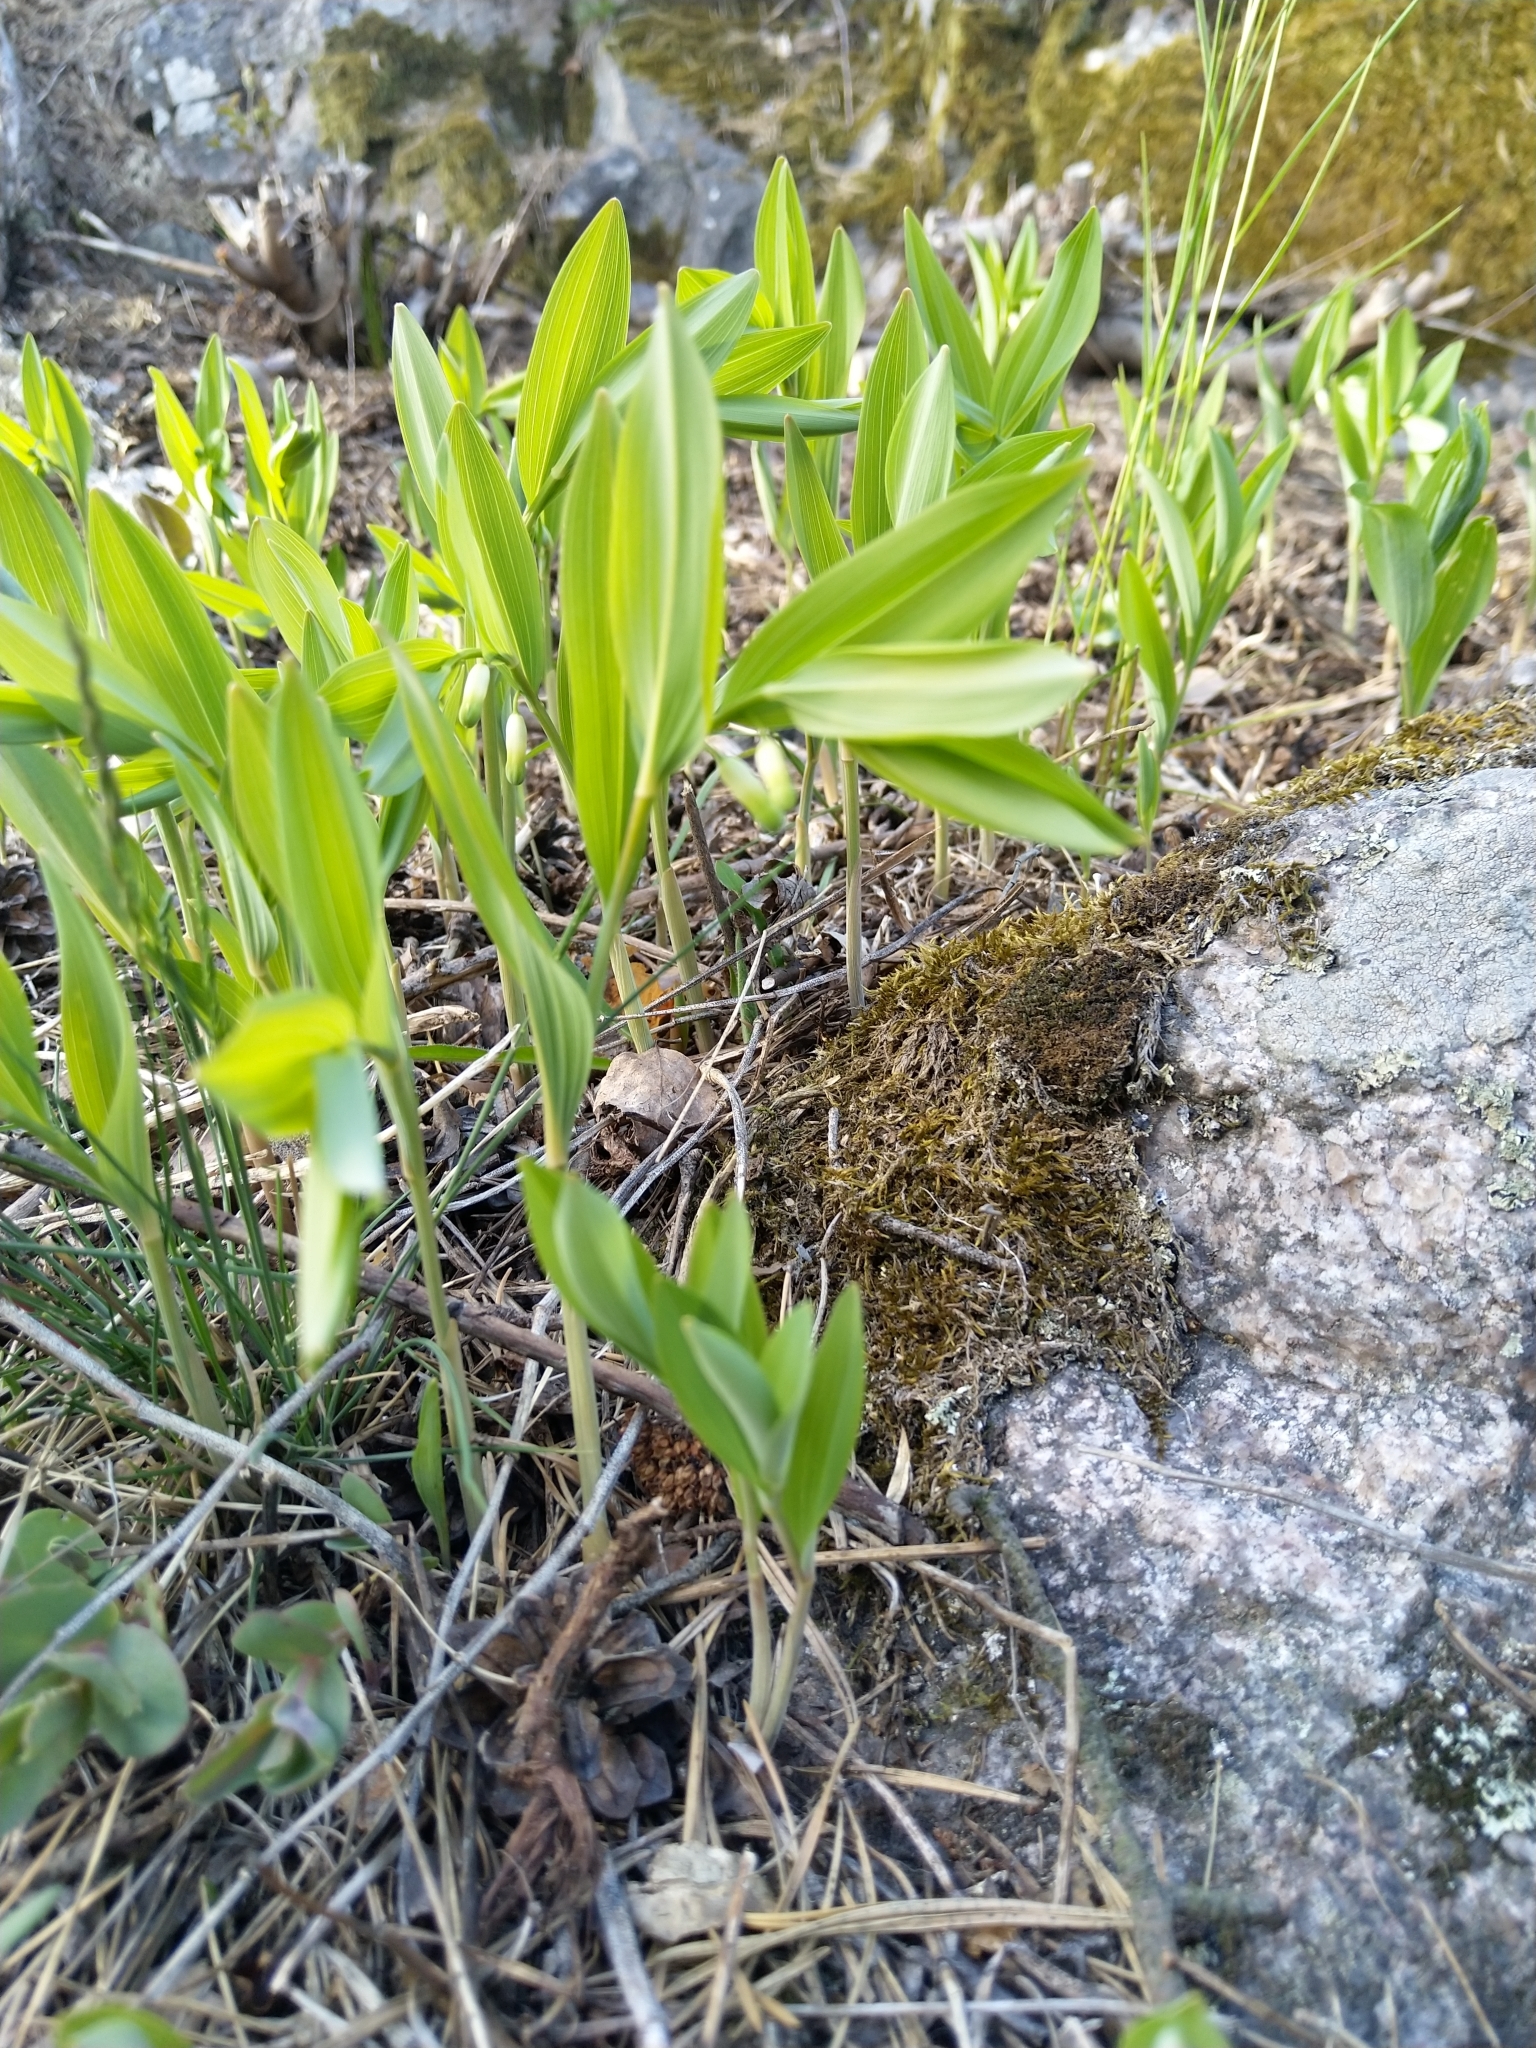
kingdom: Plantae
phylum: Tracheophyta
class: Liliopsida
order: Asparagales
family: Asparagaceae
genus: Polygonatum
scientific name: Polygonatum odoratum
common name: Angular solomon's-seal
